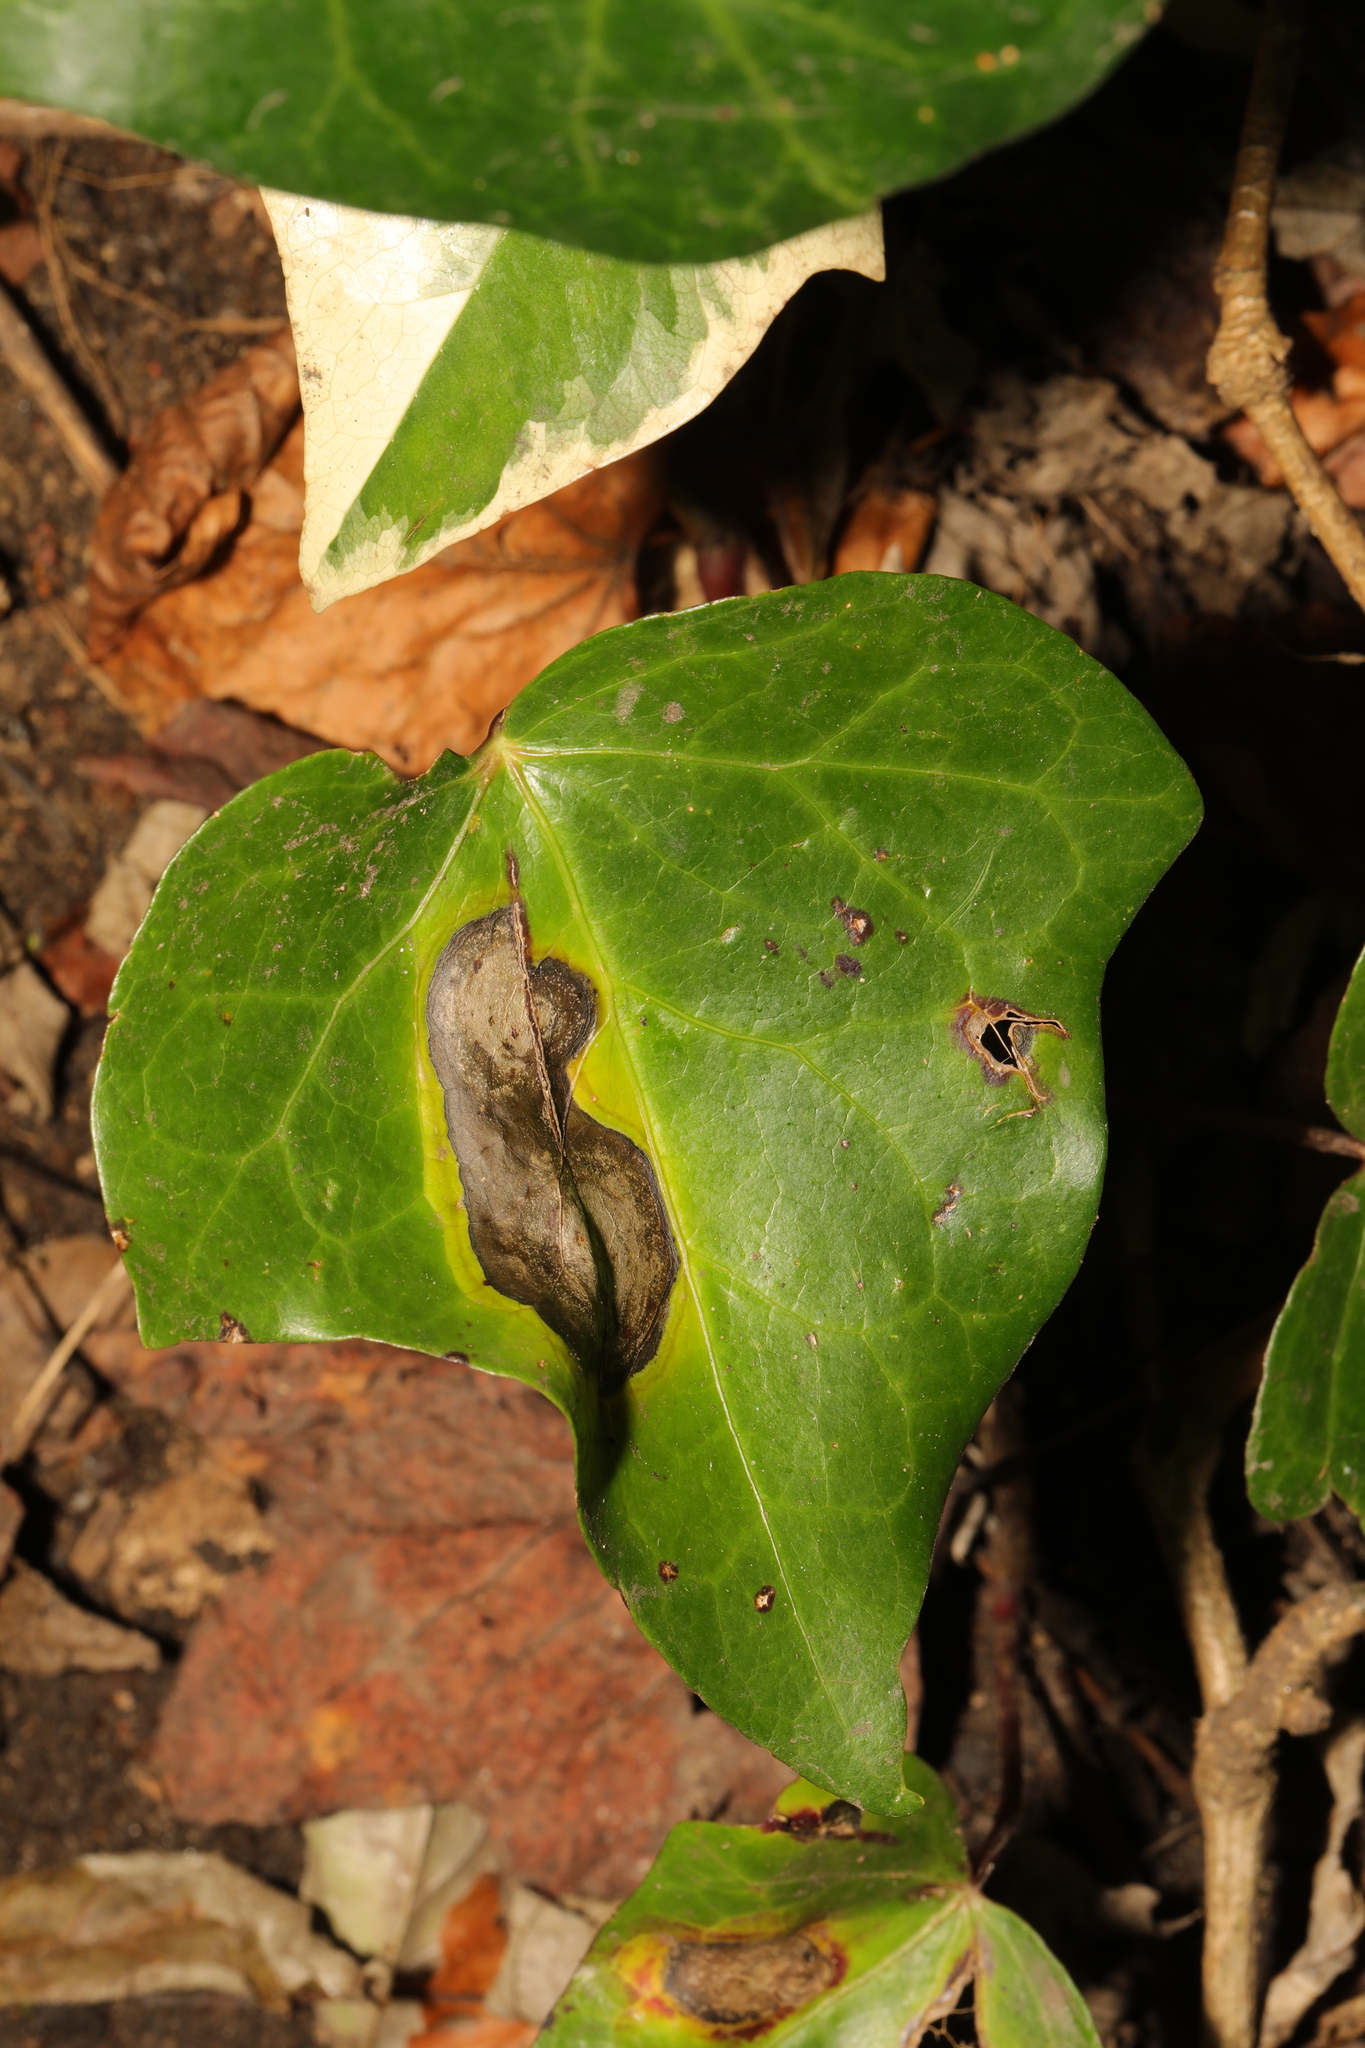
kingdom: Fungi
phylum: Ascomycota
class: Dothideomycetes
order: Pleosporales
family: Didymellaceae
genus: Boeremia
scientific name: Boeremia hedericola
